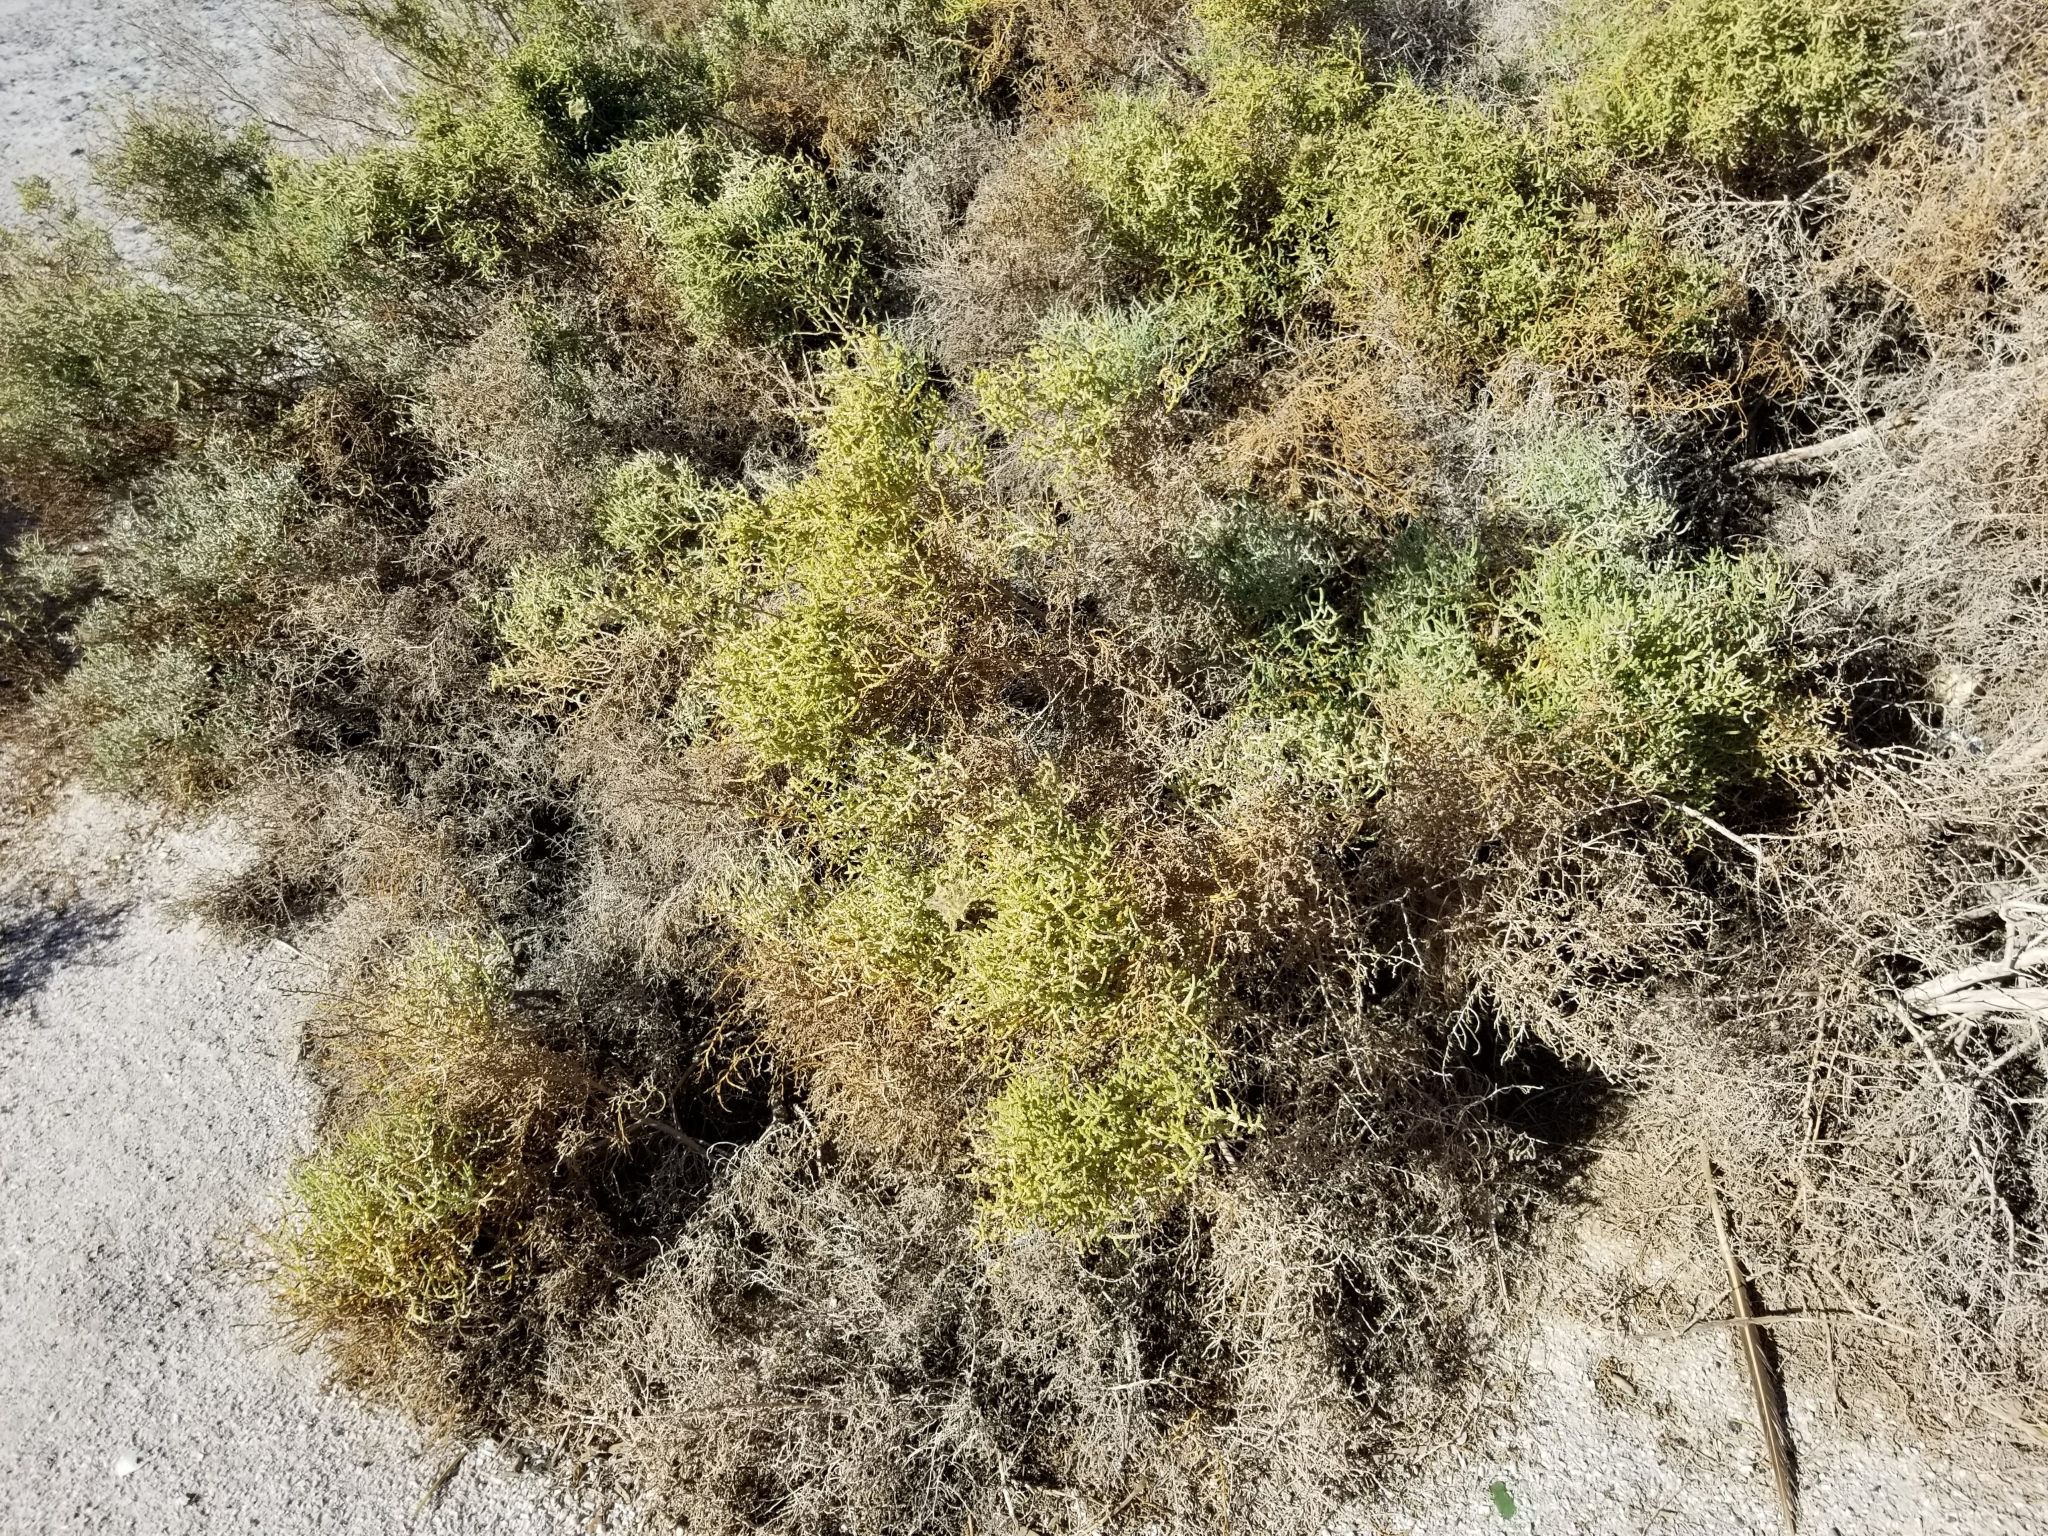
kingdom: Plantae
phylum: Tracheophyta
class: Magnoliopsida
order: Caryophyllales
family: Amaranthaceae
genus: Allenrolfea
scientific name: Allenrolfea occidentalis
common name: Iodine-bush
